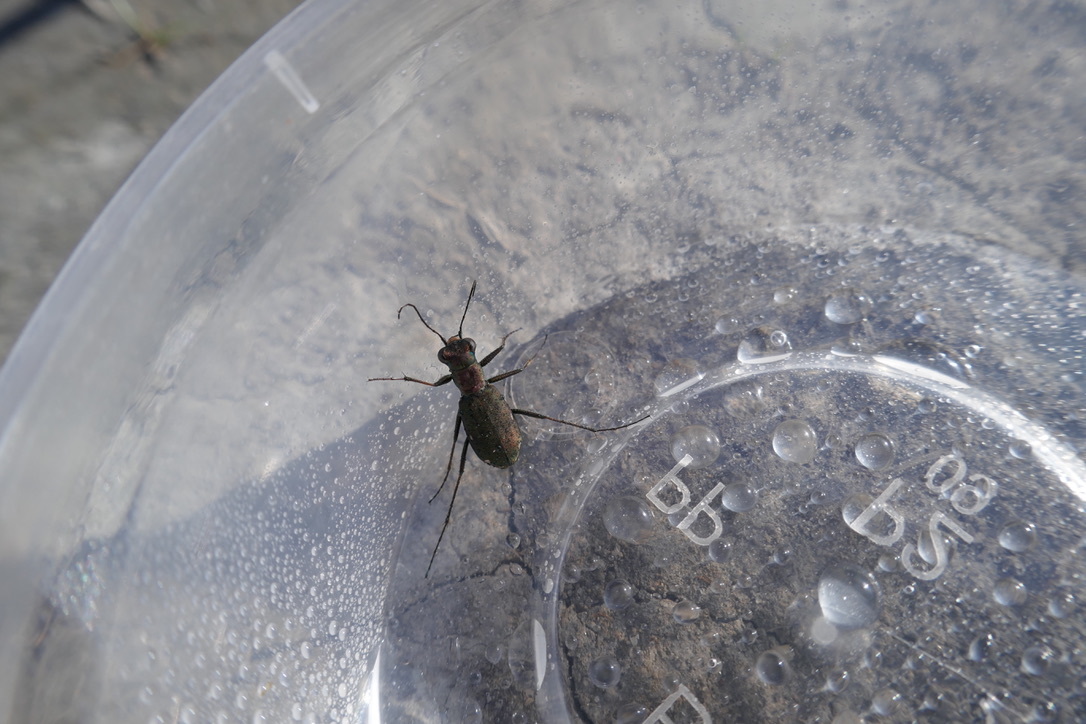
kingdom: Animalia
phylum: Arthropoda
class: Insecta
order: Coleoptera
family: Carabidae
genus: Cylindera
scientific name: Cylindera germanica
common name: Cliff tiger beetle
